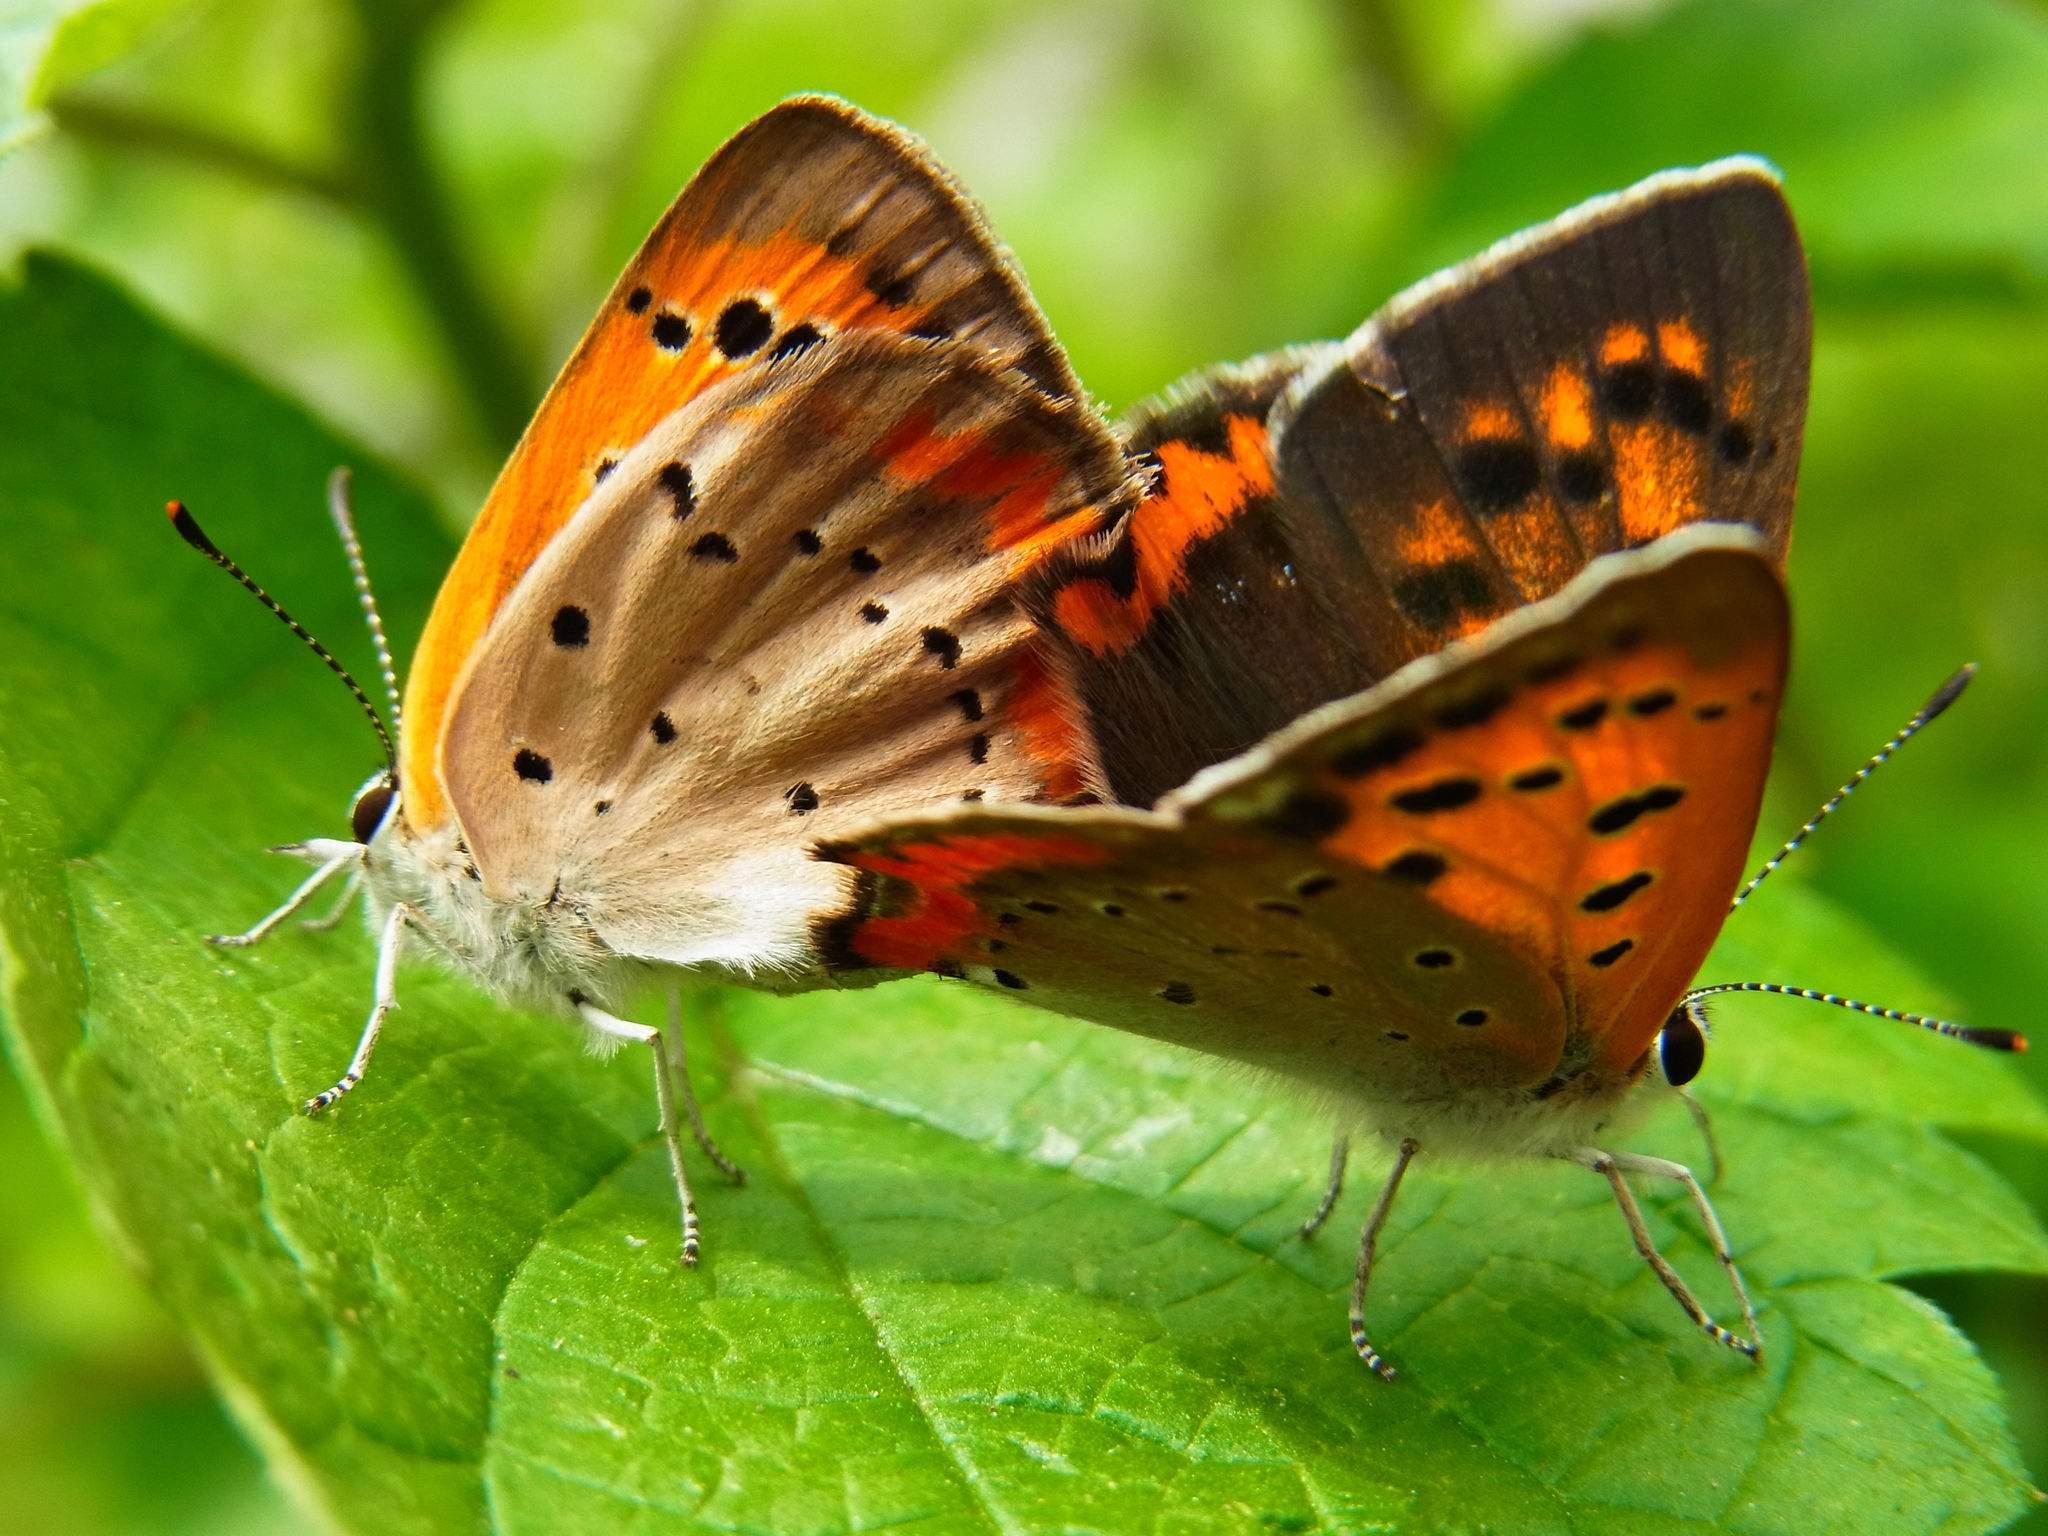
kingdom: Animalia
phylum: Arthropoda
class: Insecta
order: Lepidoptera
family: Lycaenidae
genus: Lycaena
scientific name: Lycaena phlaeas
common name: Small copper
